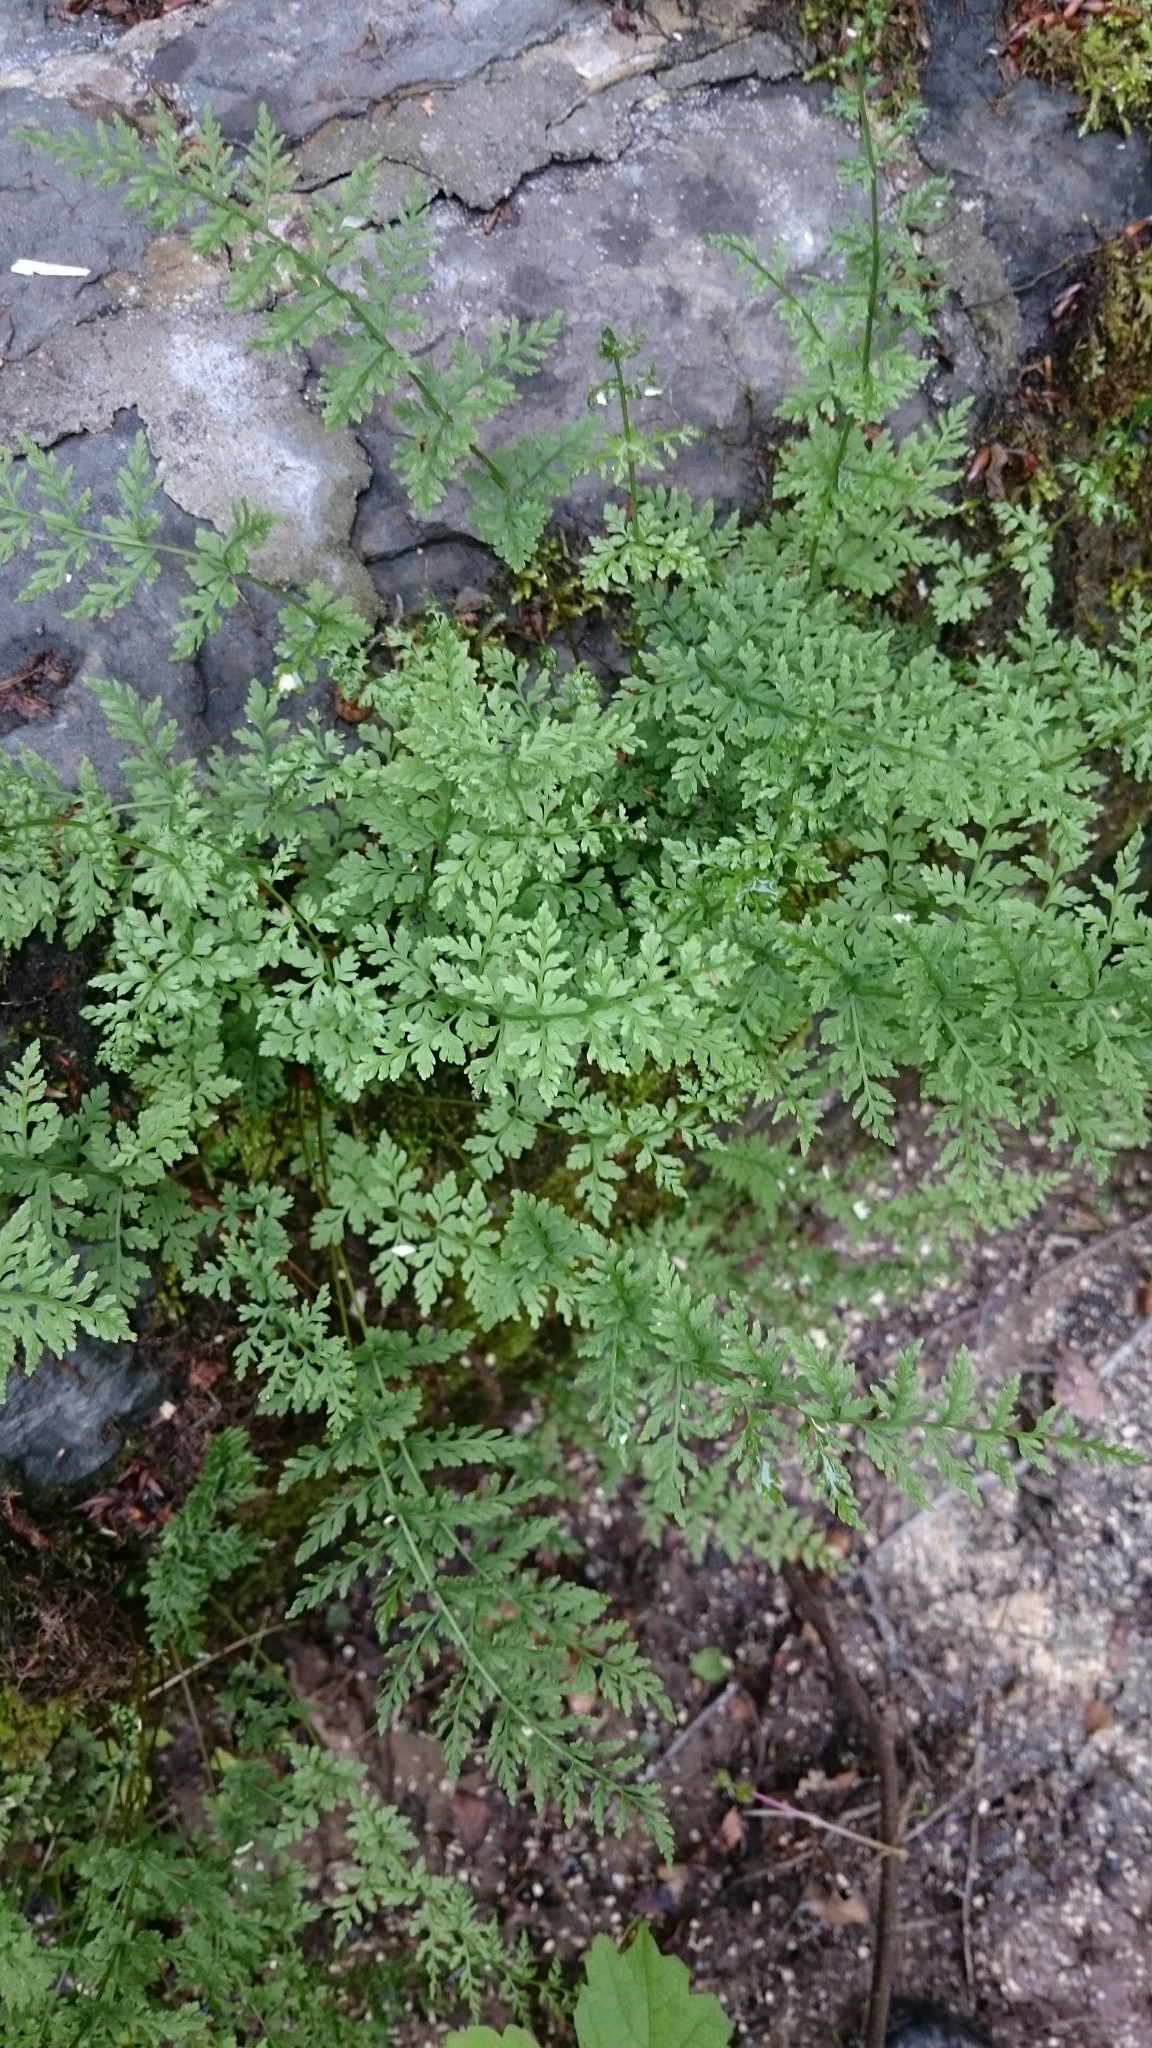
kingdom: Plantae
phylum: Tracheophyta
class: Polypodiopsida
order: Polypodiales
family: Cystopteridaceae
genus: Cystopteris
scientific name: Cystopteris fragilis
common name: Brittle bladder fern
